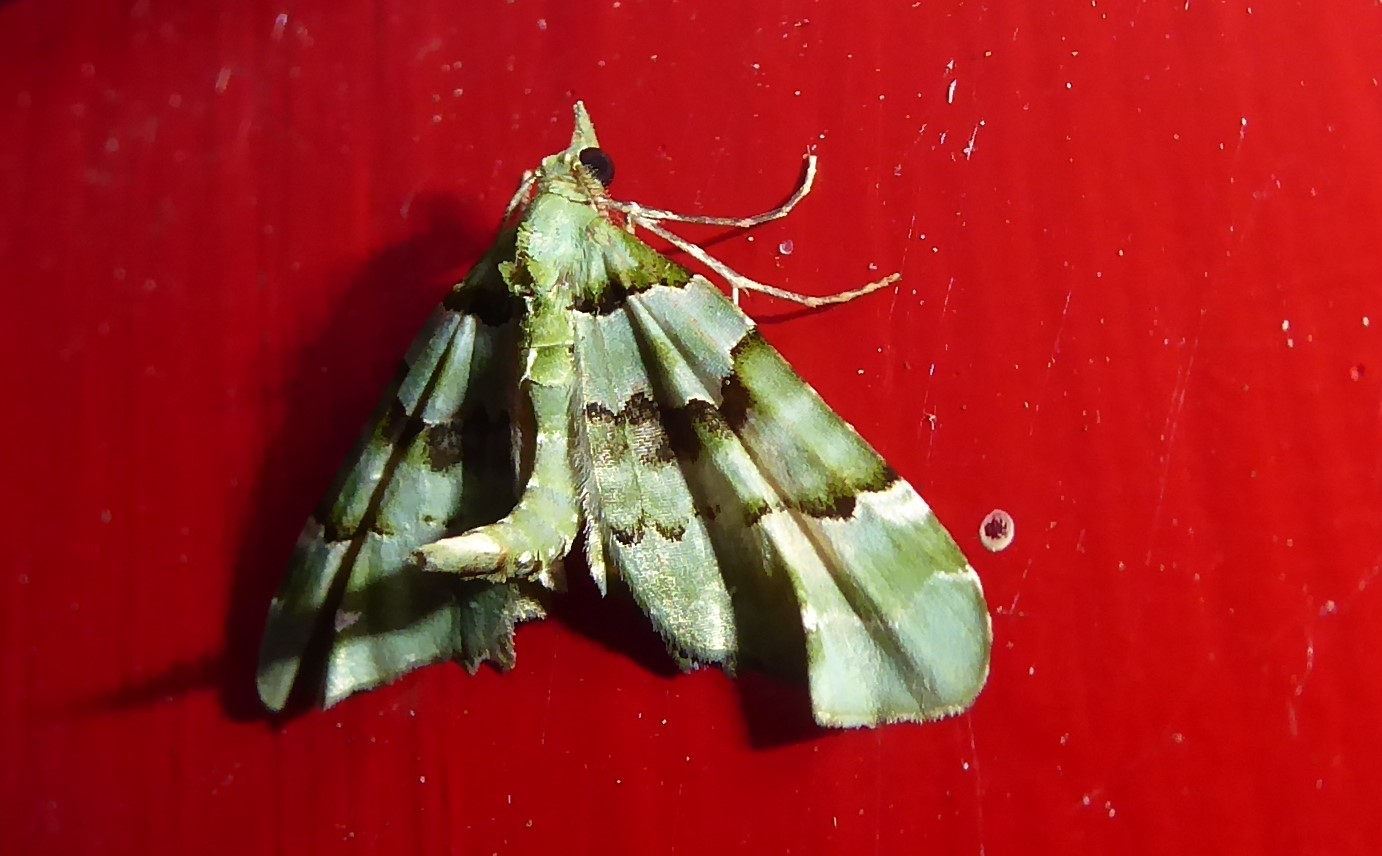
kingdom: Animalia
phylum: Arthropoda
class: Insecta
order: Lepidoptera
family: Geometridae
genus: Elvia
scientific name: Elvia glaucata
